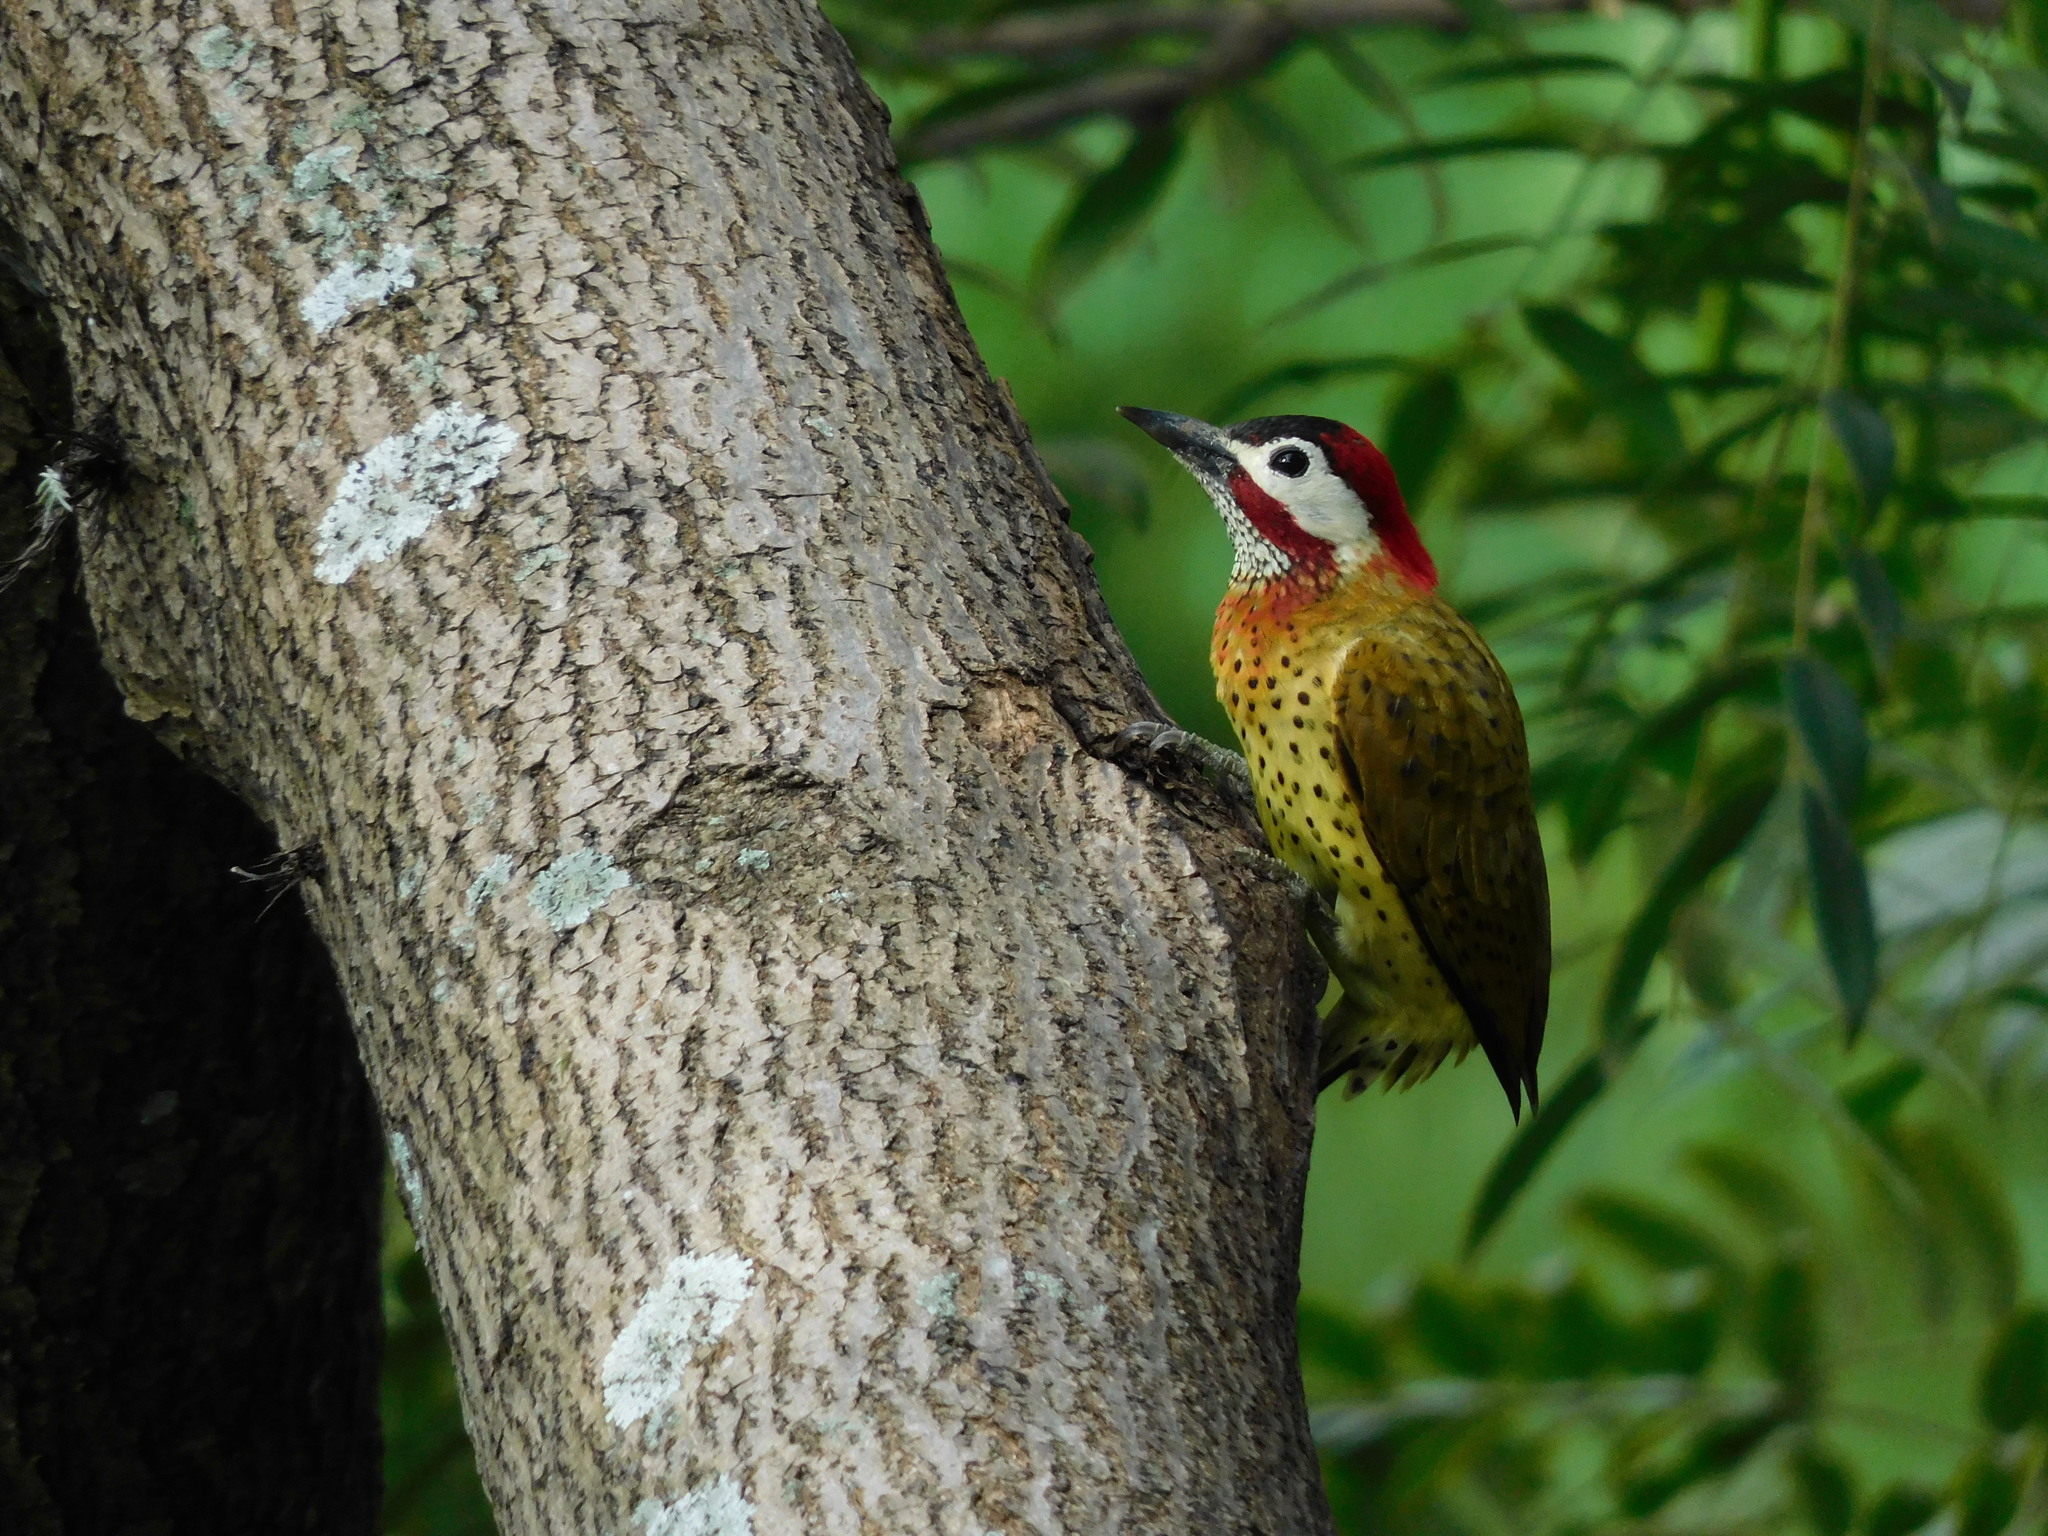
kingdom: Animalia
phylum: Chordata
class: Aves
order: Piciformes
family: Picidae
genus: Colaptes
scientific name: Colaptes punctigula
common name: Spot-breasted woodpecker
